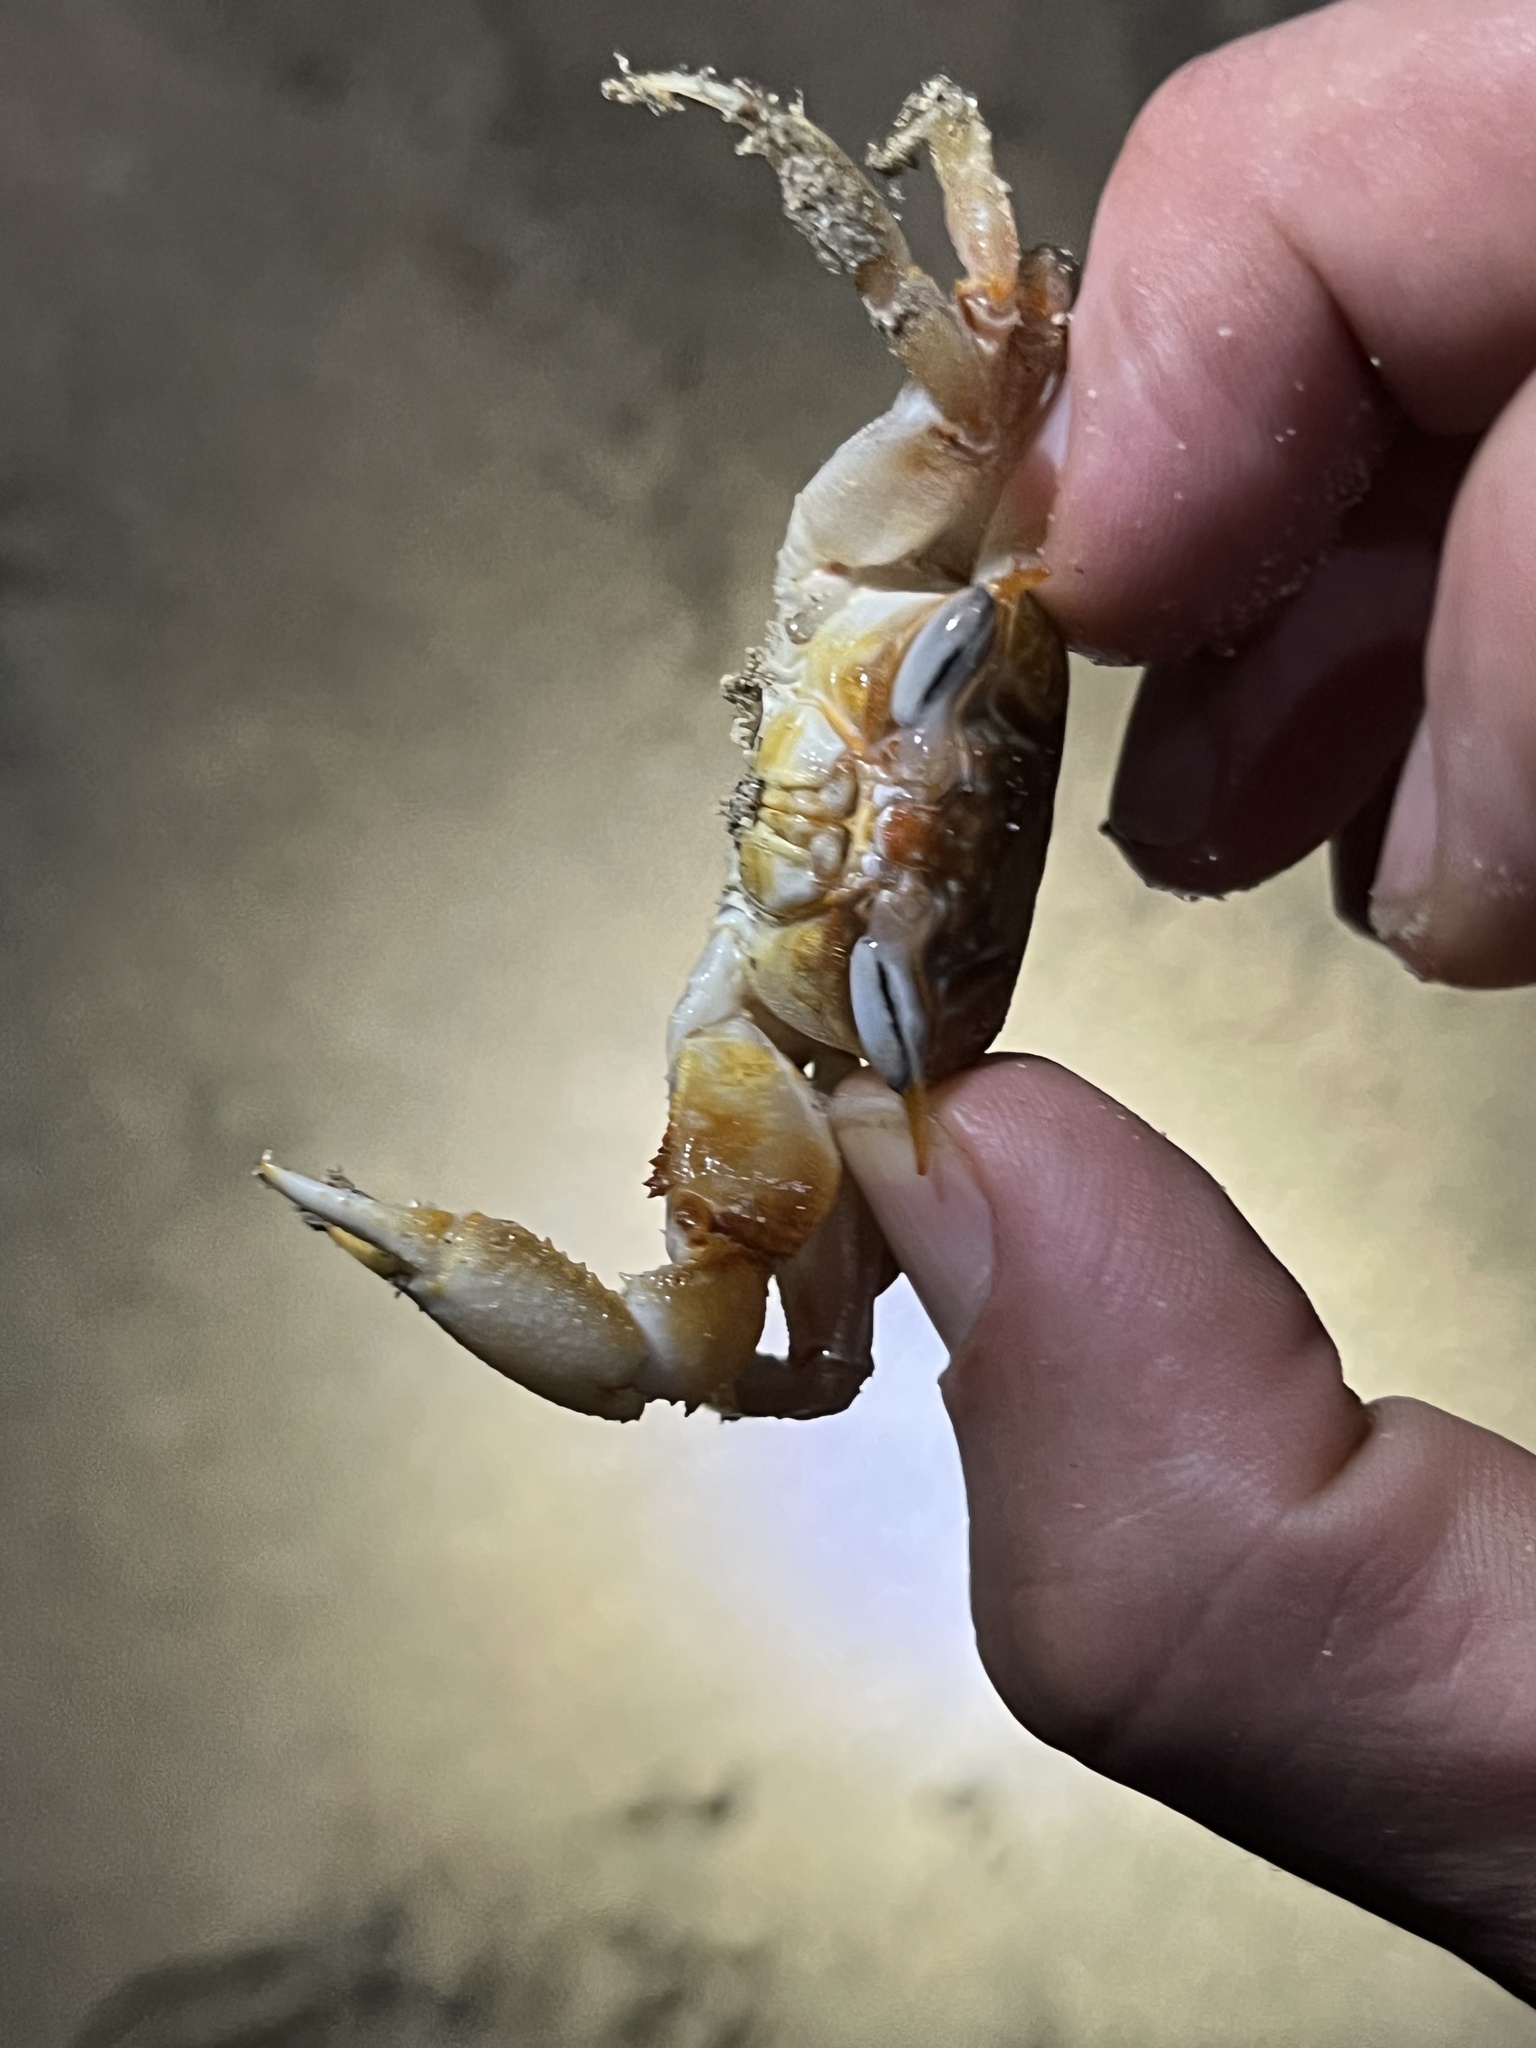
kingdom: Animalia
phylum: Arthropoda
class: Malacostraca
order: Decapoda
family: Ocypodidae
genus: Ocypode
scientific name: Ocypode gaudichaudii
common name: Pacific ghost crab
